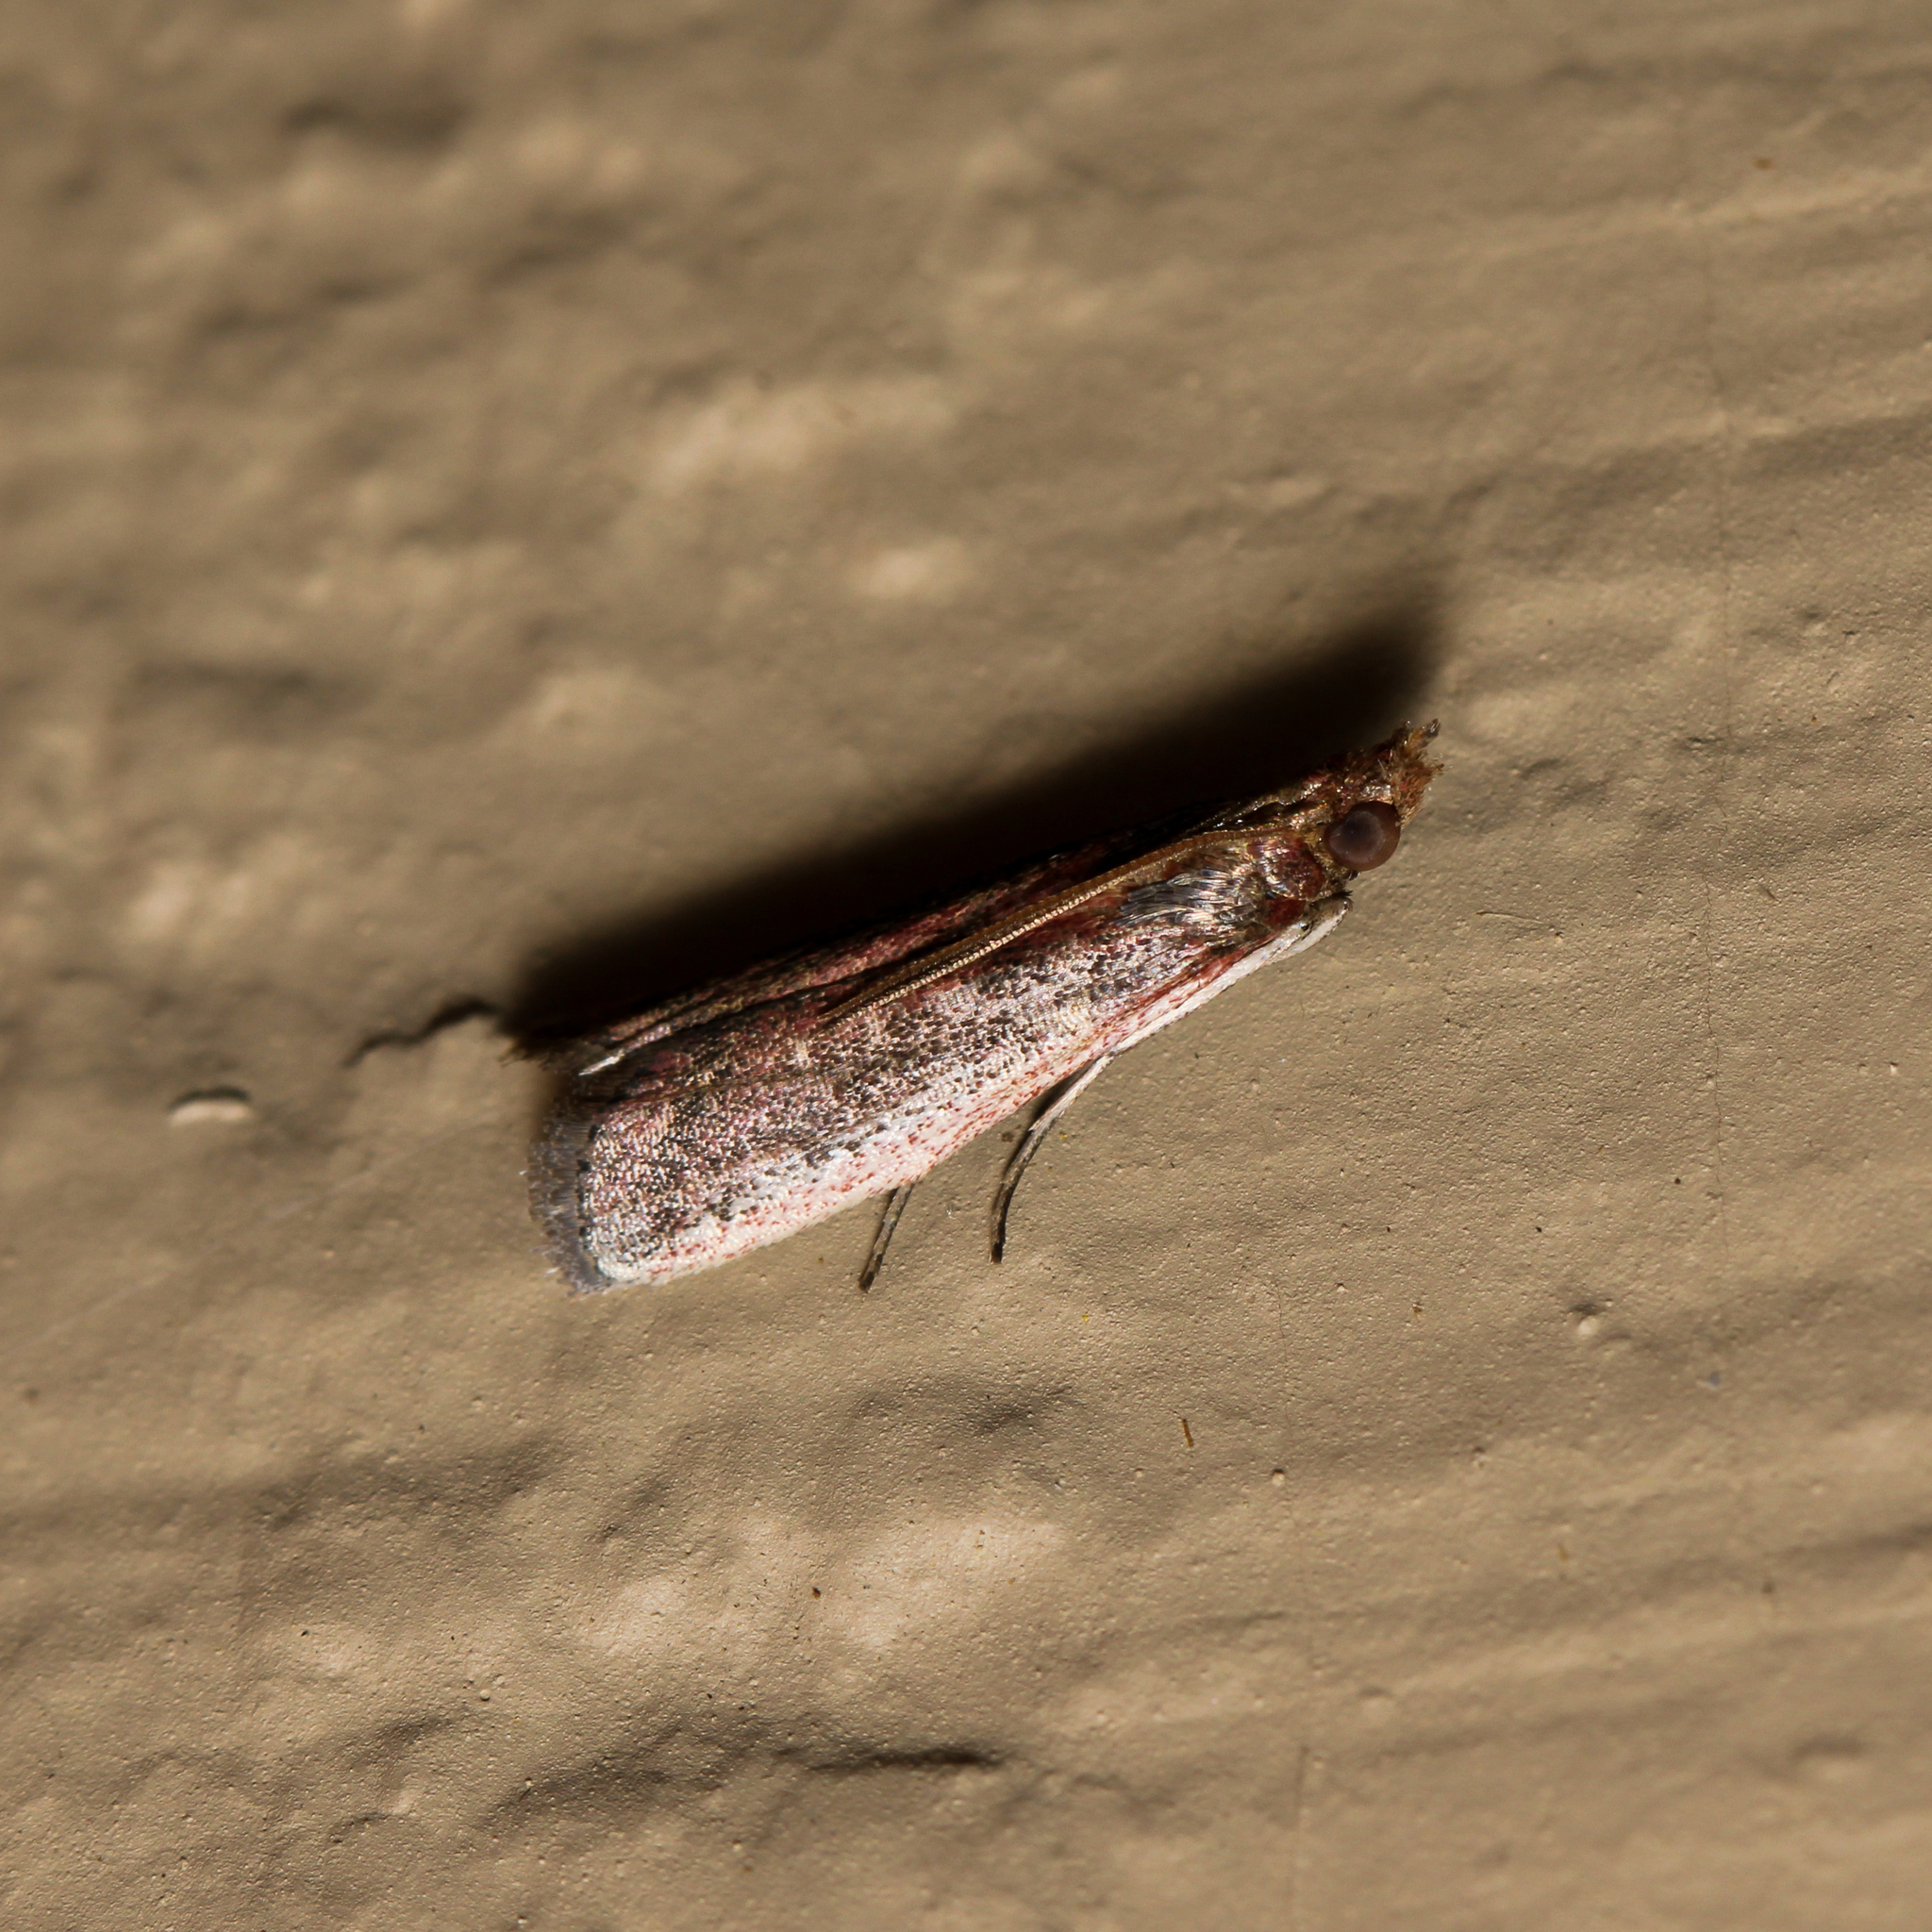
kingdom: Animalia
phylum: Arthropoda
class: Insecta
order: Lepidoptera
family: Pyralidae
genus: Atascosa
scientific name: Atascosa glareosella
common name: Rosy atascosa moth
